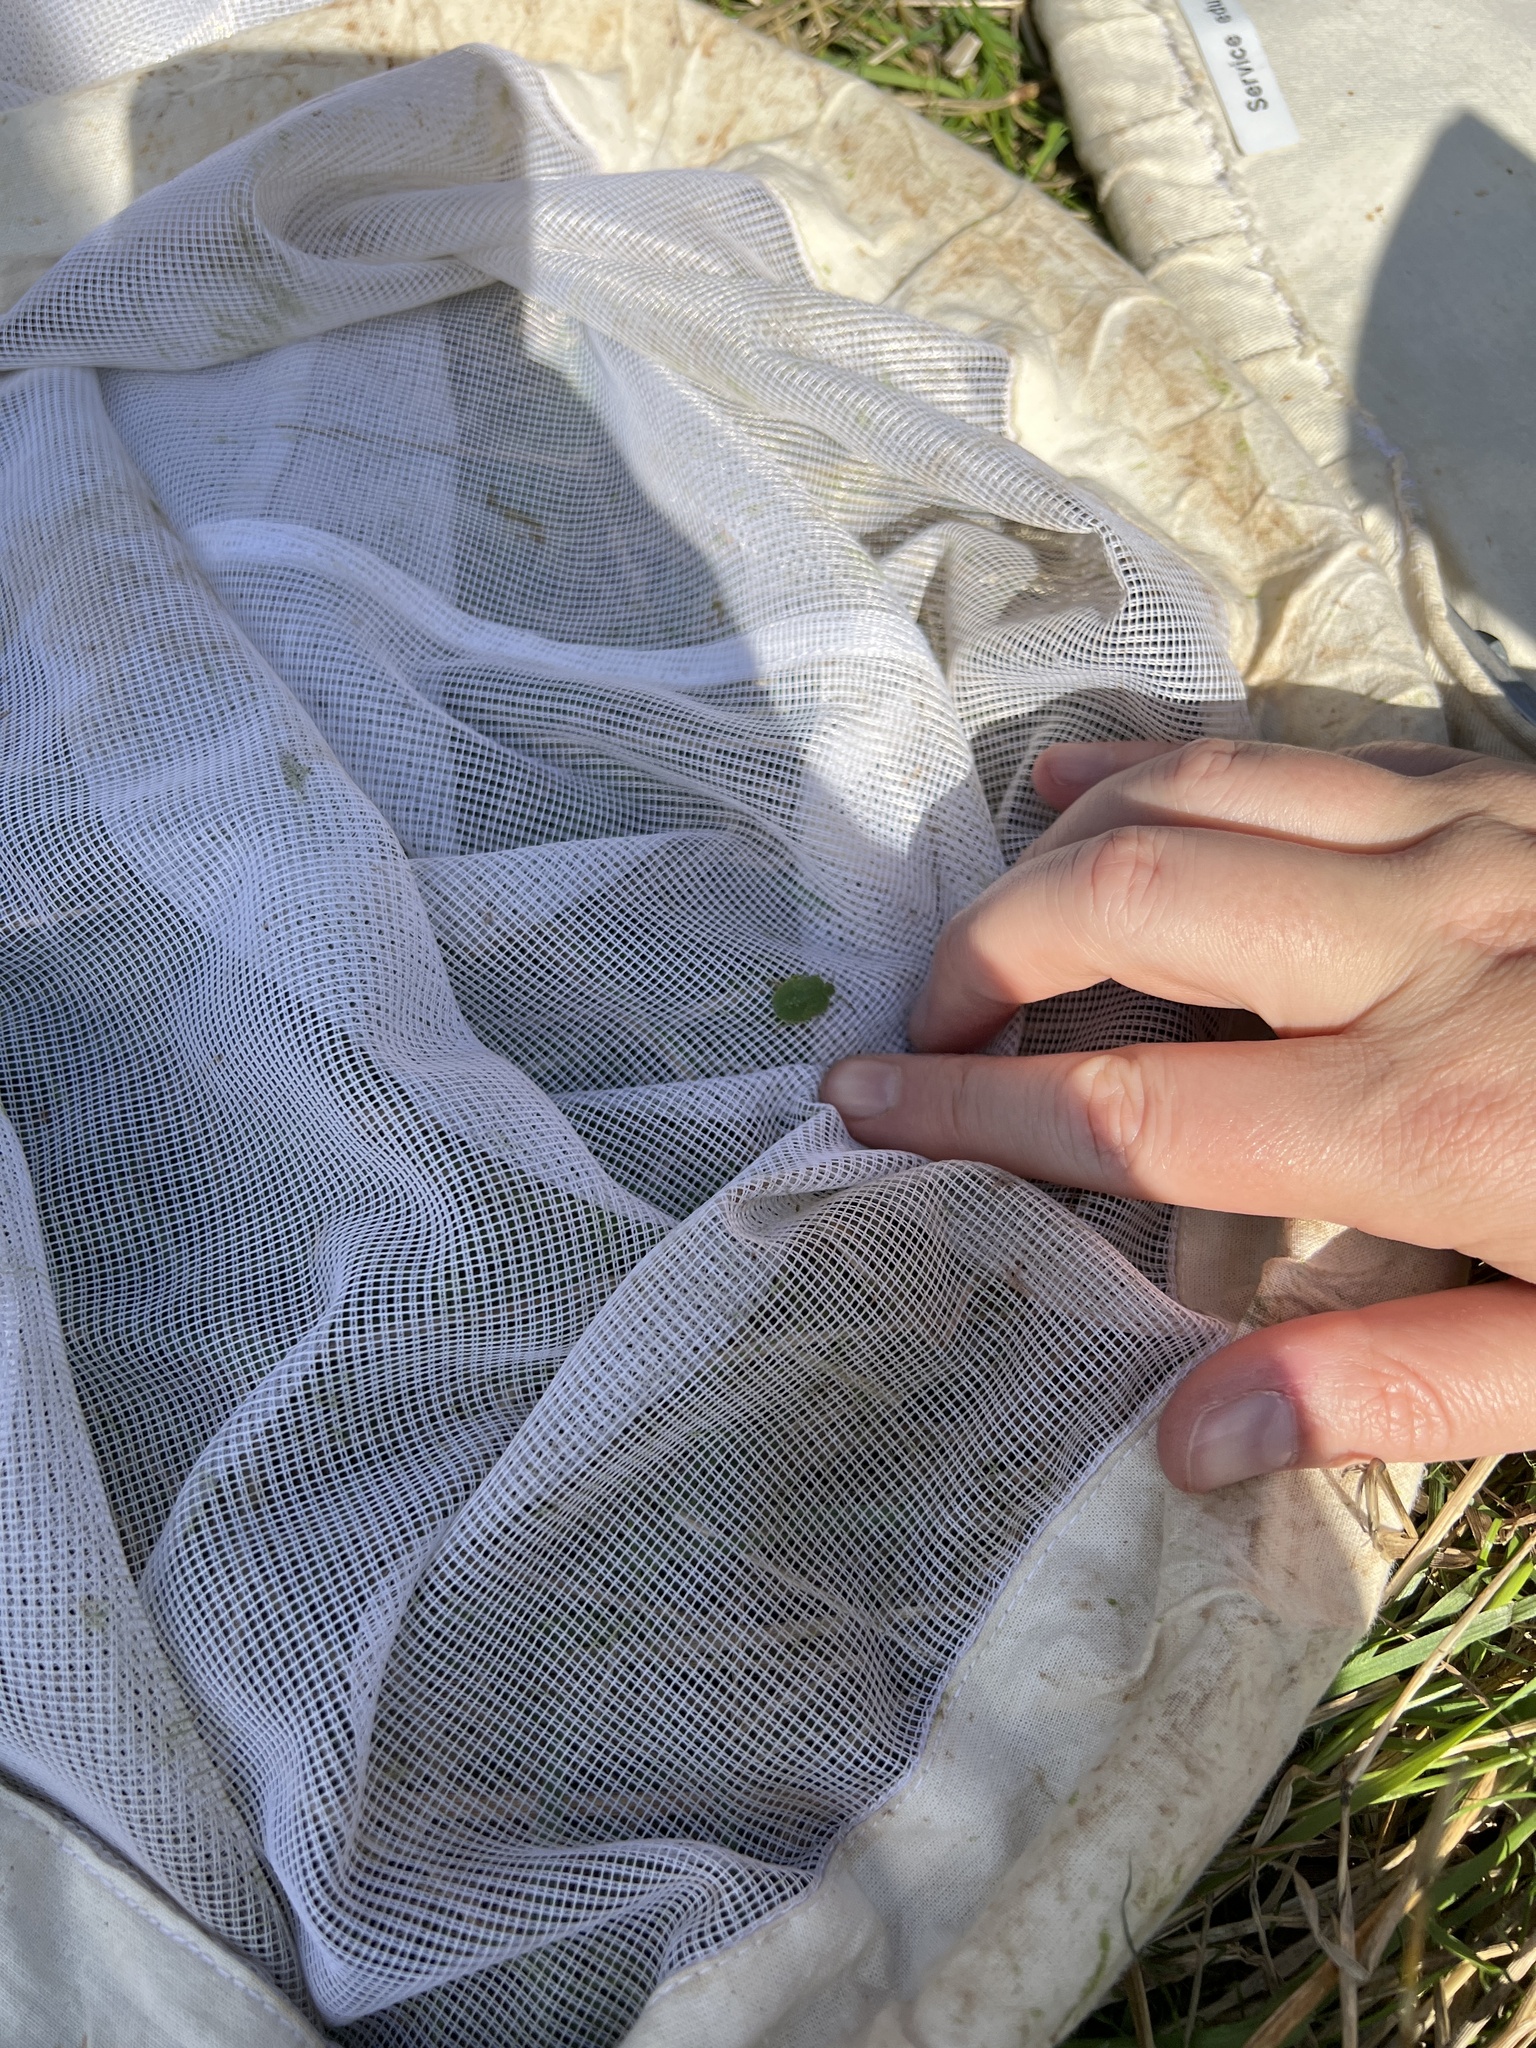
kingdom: Animalia
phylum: Arthropoda
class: Insecta
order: Hemiptera
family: Pentatomidae
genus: Palomena
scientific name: Palomena prasina
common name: Green shieldbug
